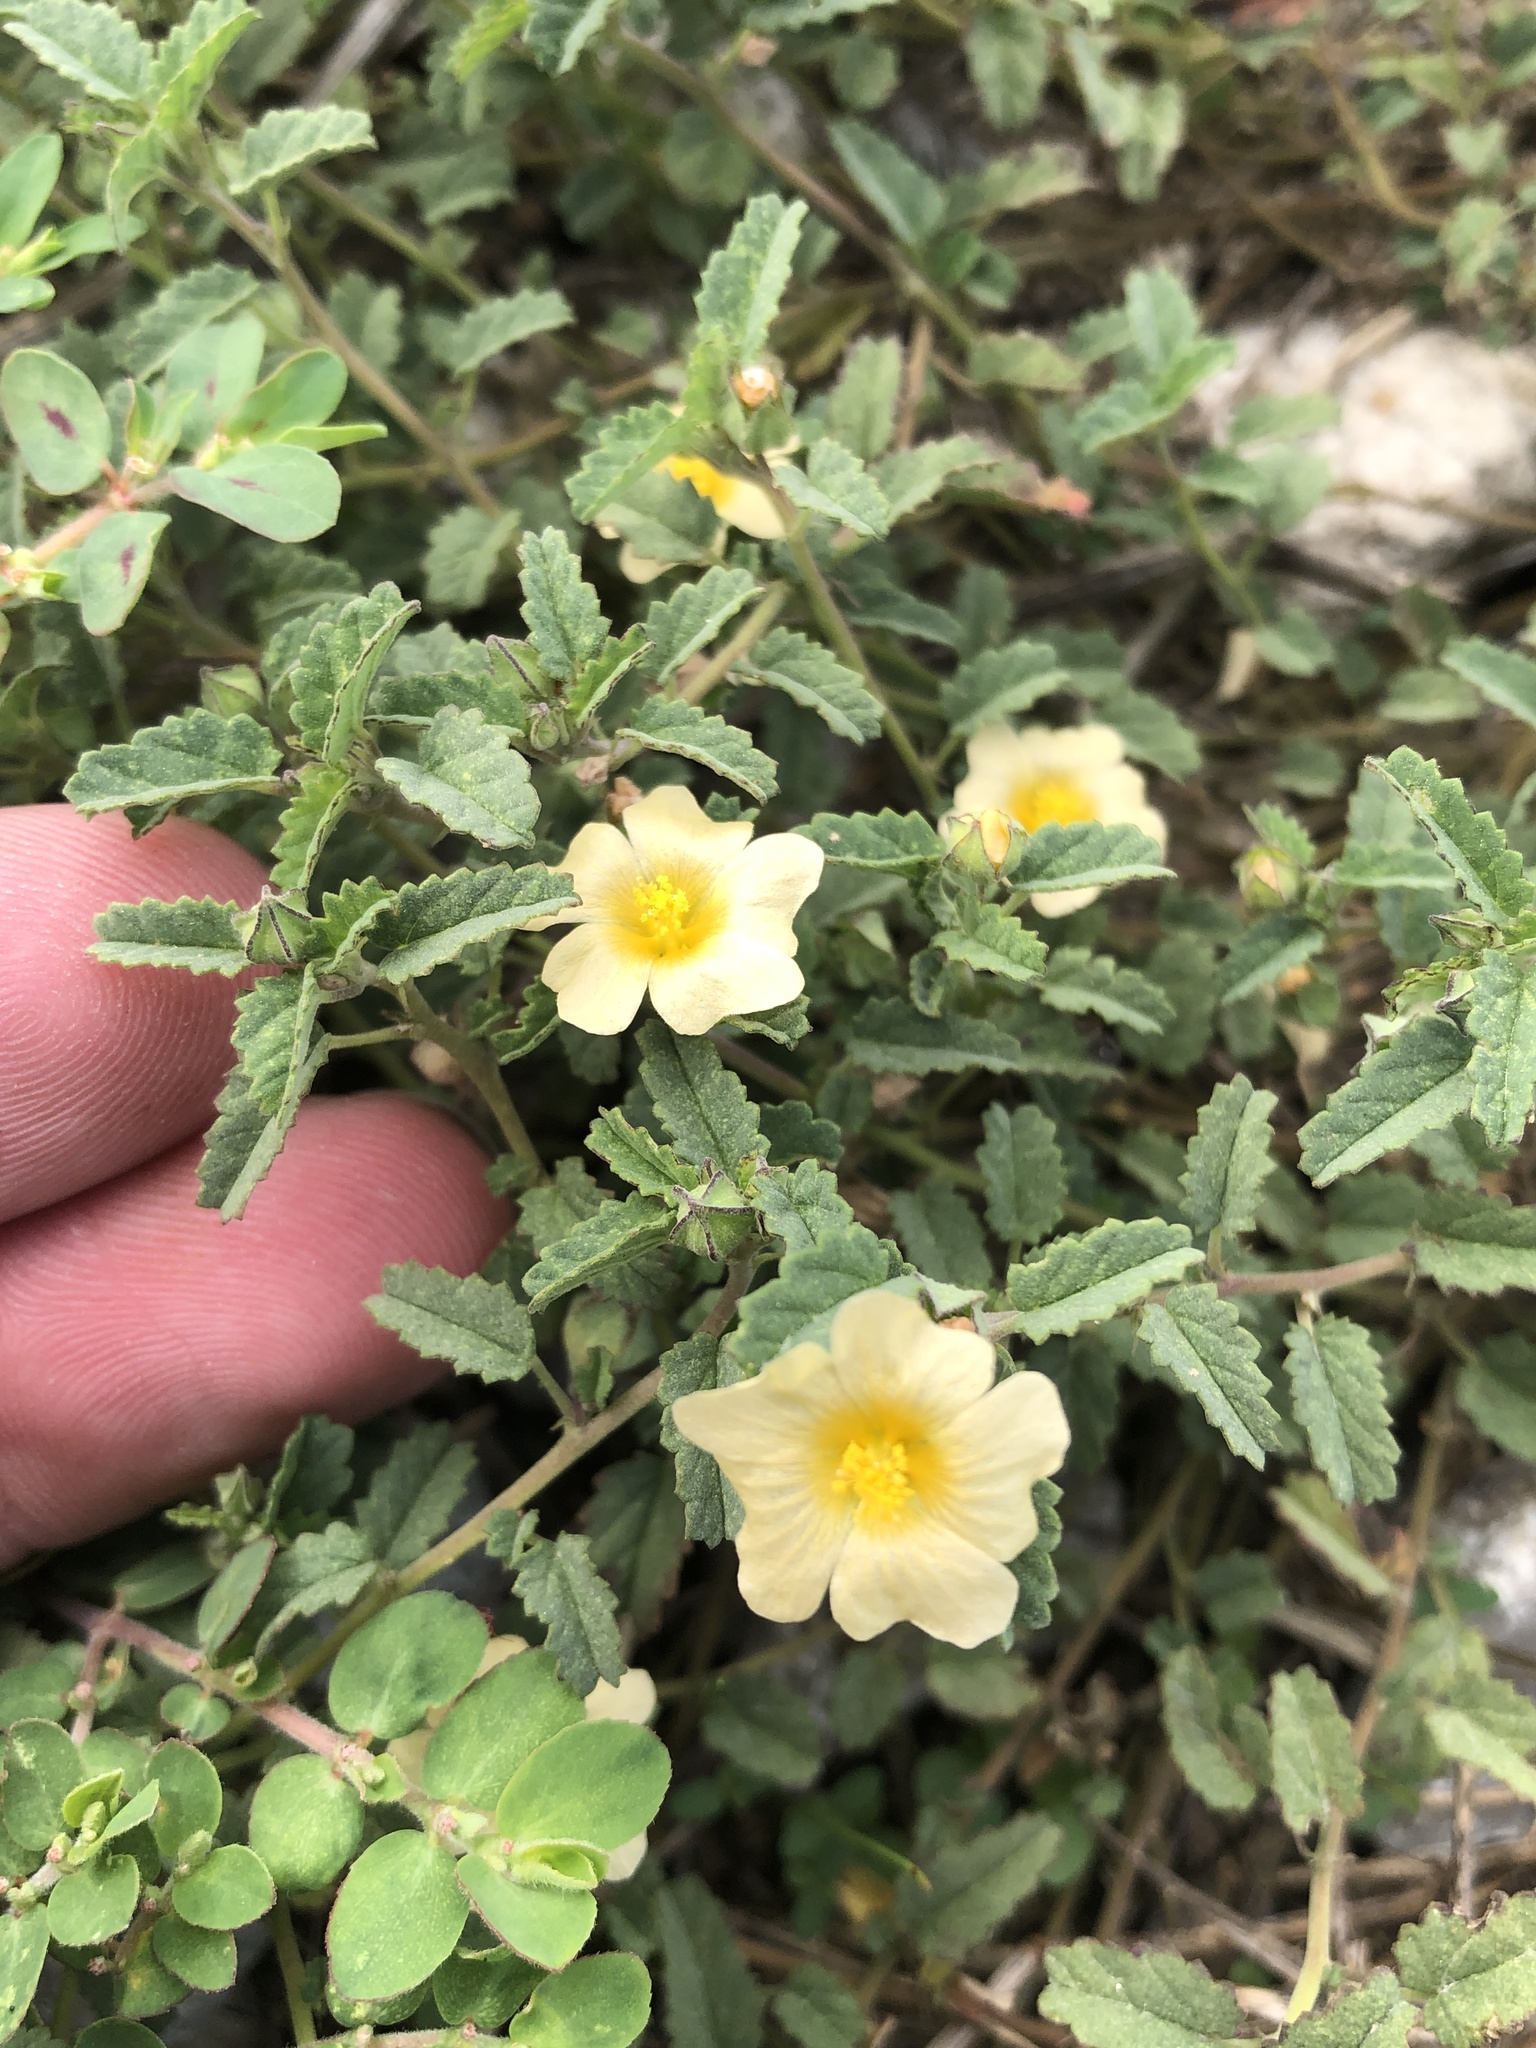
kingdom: Plantae
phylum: Tracheophyta
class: Magnoliopsida
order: Malvales
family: Malvaceae
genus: Sida
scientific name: Sida abutilifolia
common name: Spreading fanpetals
